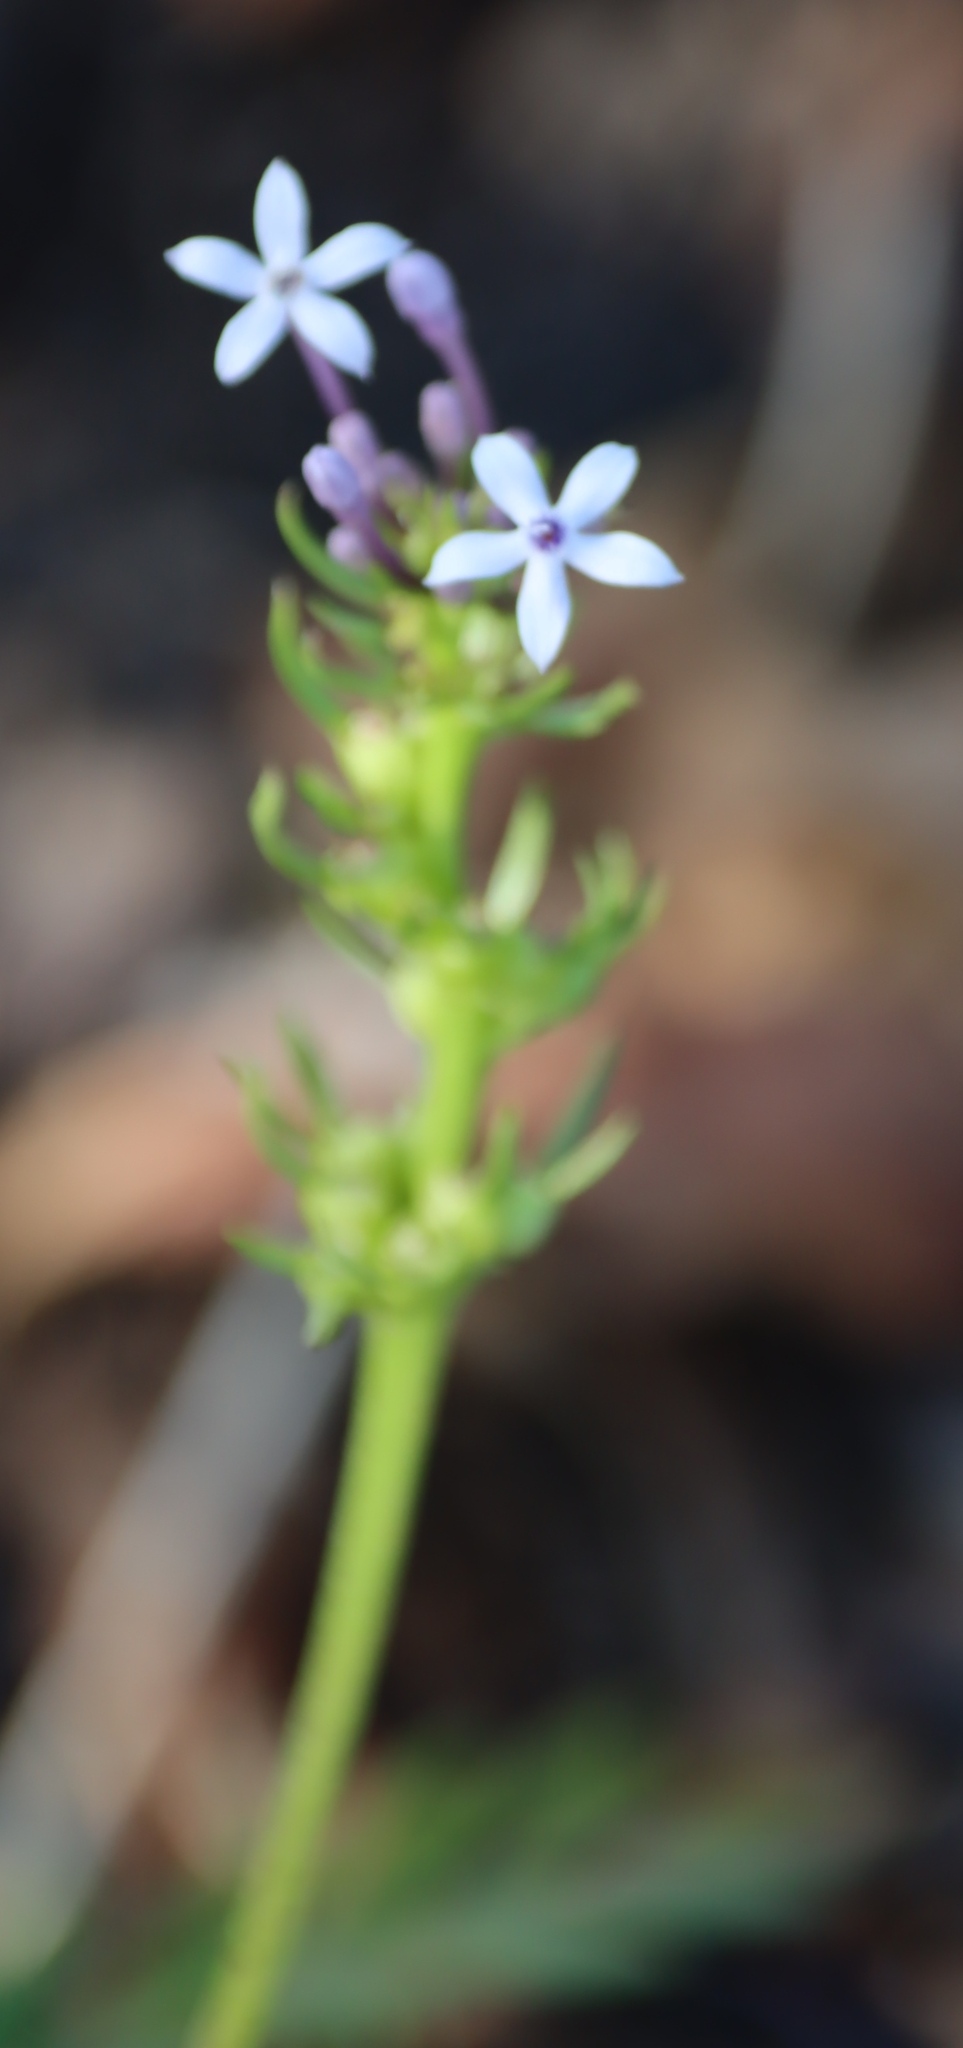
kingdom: Plantae
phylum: Tracheophyta
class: Magnoliopsida
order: Gentianales
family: Rubiaceae
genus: Pentanisia
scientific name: Pentanisia angustifolia
